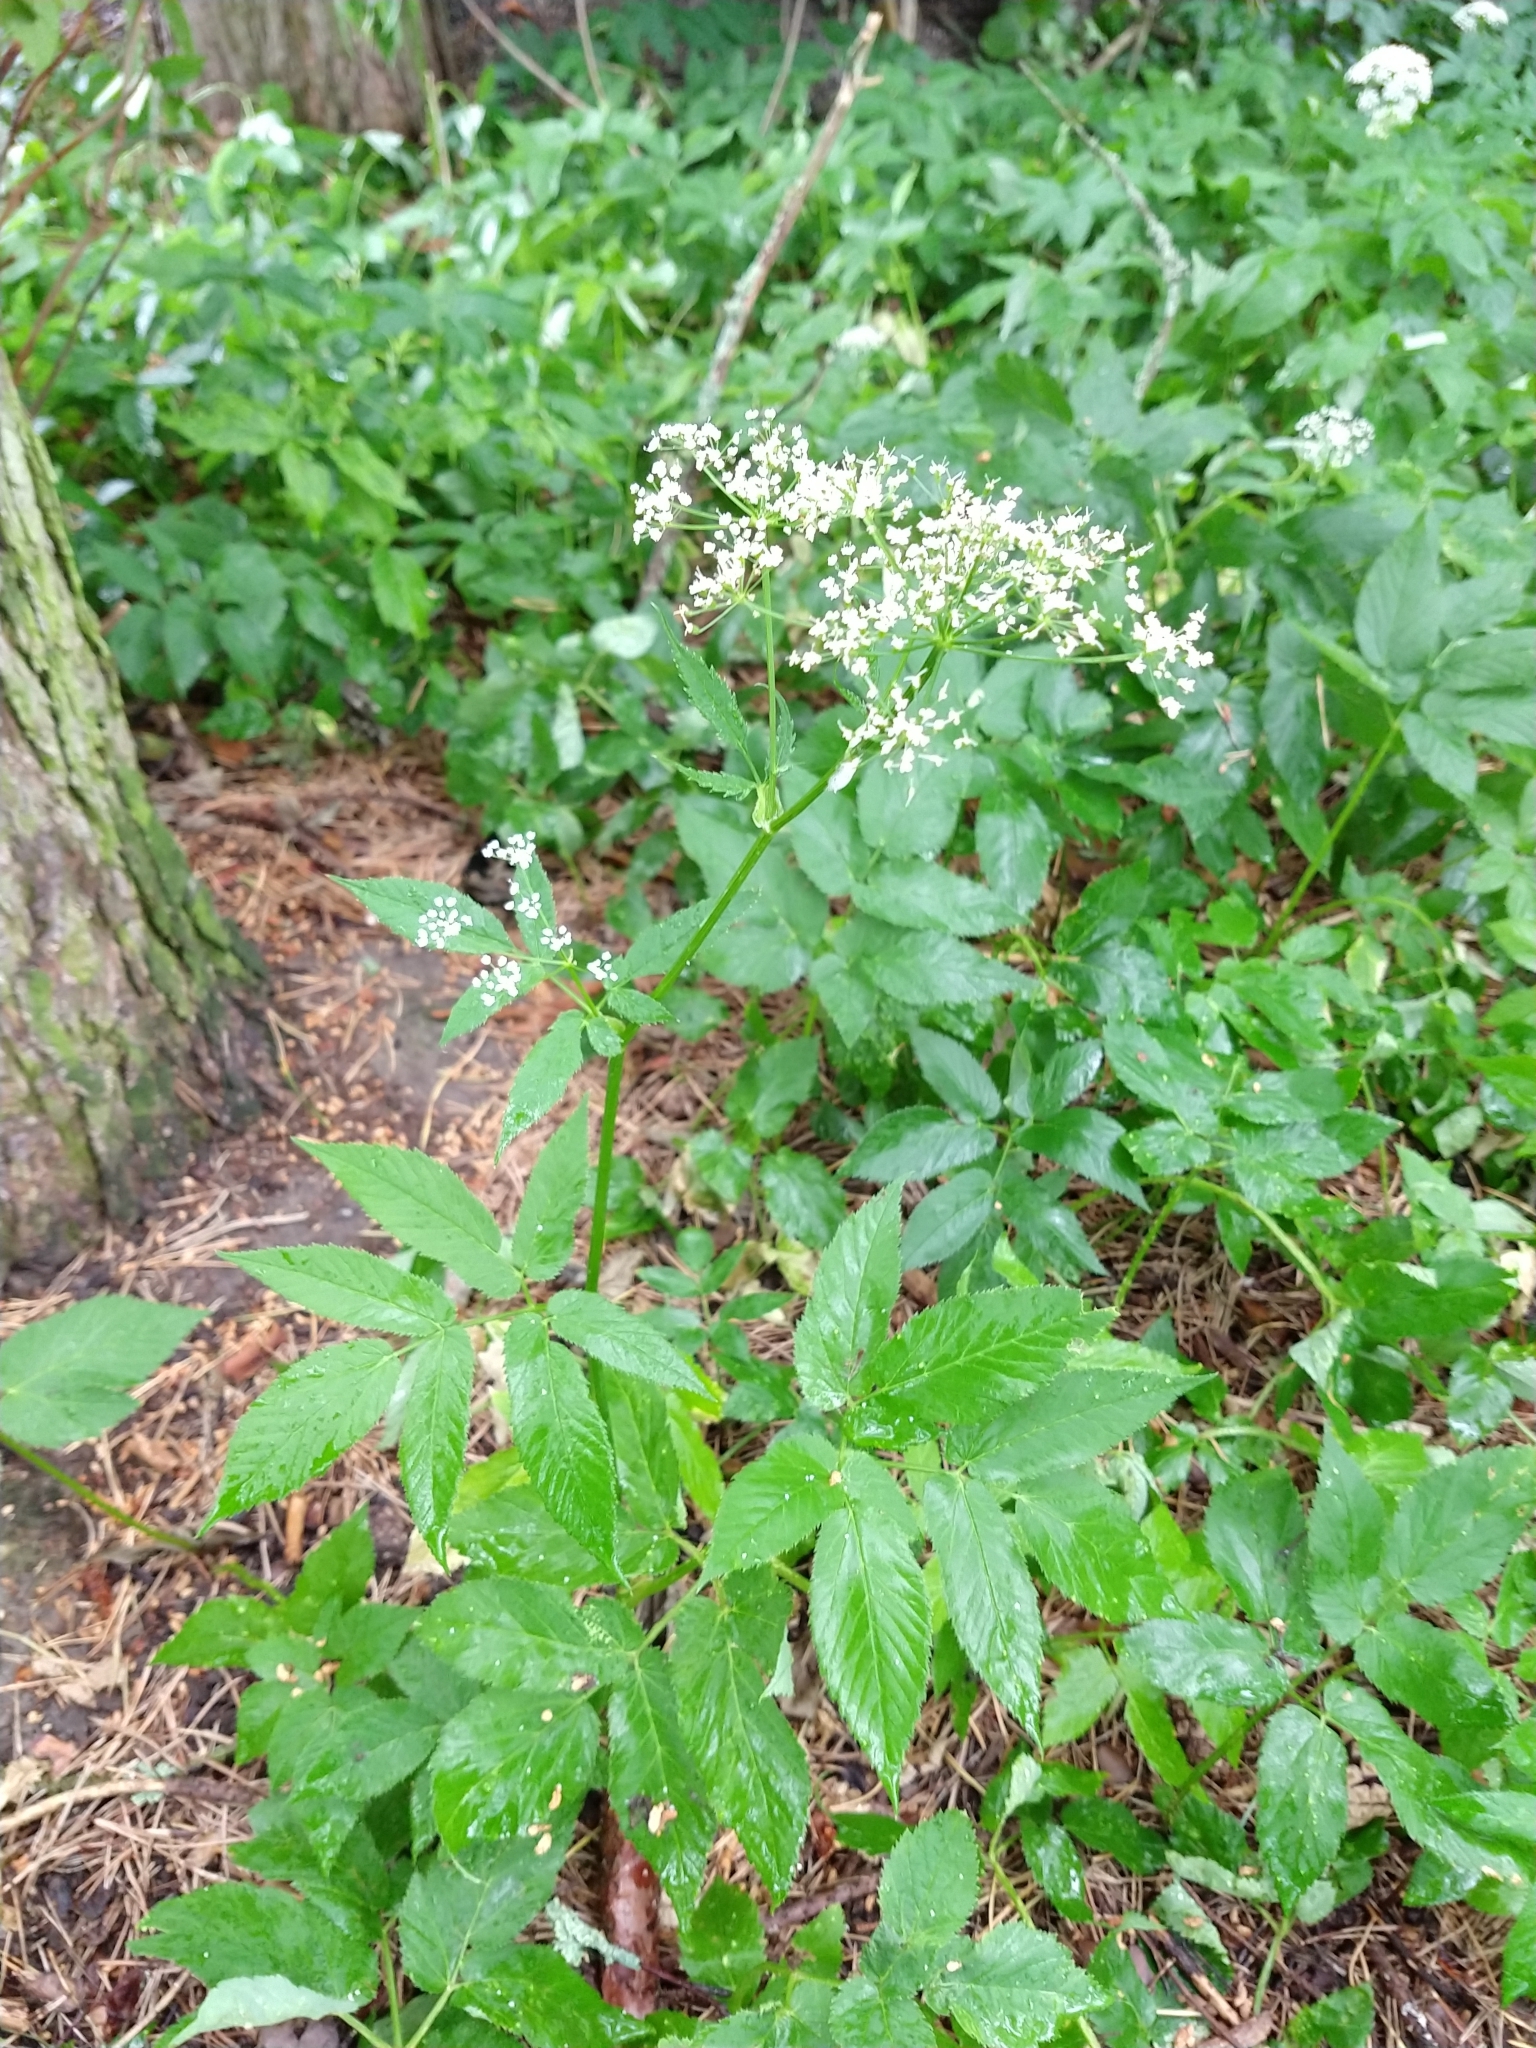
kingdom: Plantae
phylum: Tracheophyta
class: Magnoliopsida
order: Apiales
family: Apiaceae
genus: Aegopodium
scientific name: Aegopodium podagraria
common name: Ground-elder
